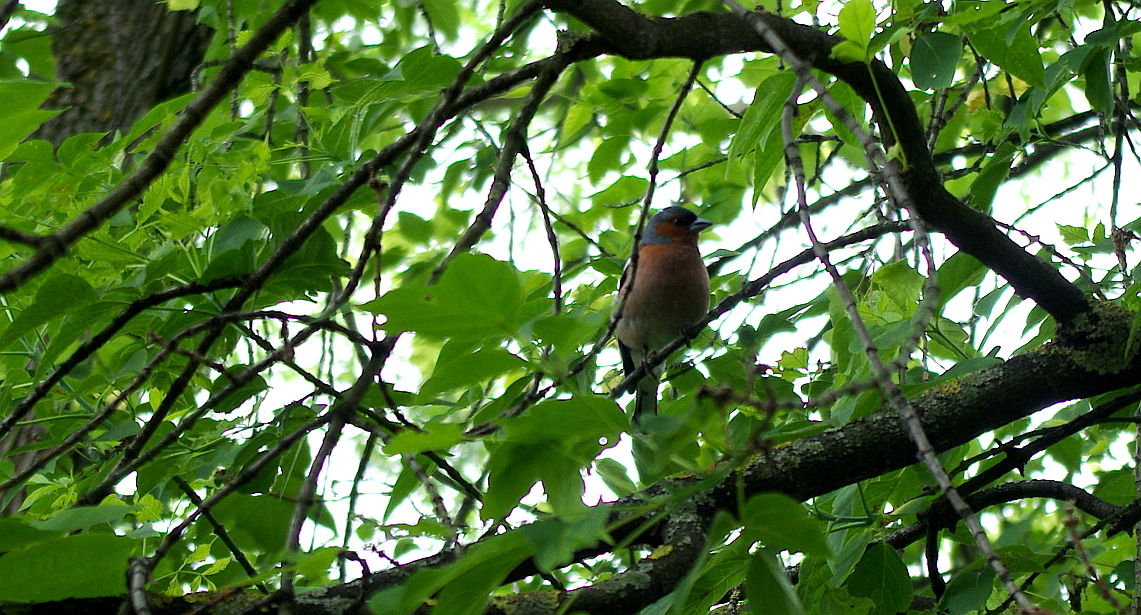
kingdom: Animalia
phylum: Chordata
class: Aves
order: Passeriformes
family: Fringillidae
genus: Fringilla
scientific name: Fringilla coelebs
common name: Common chaffinch
